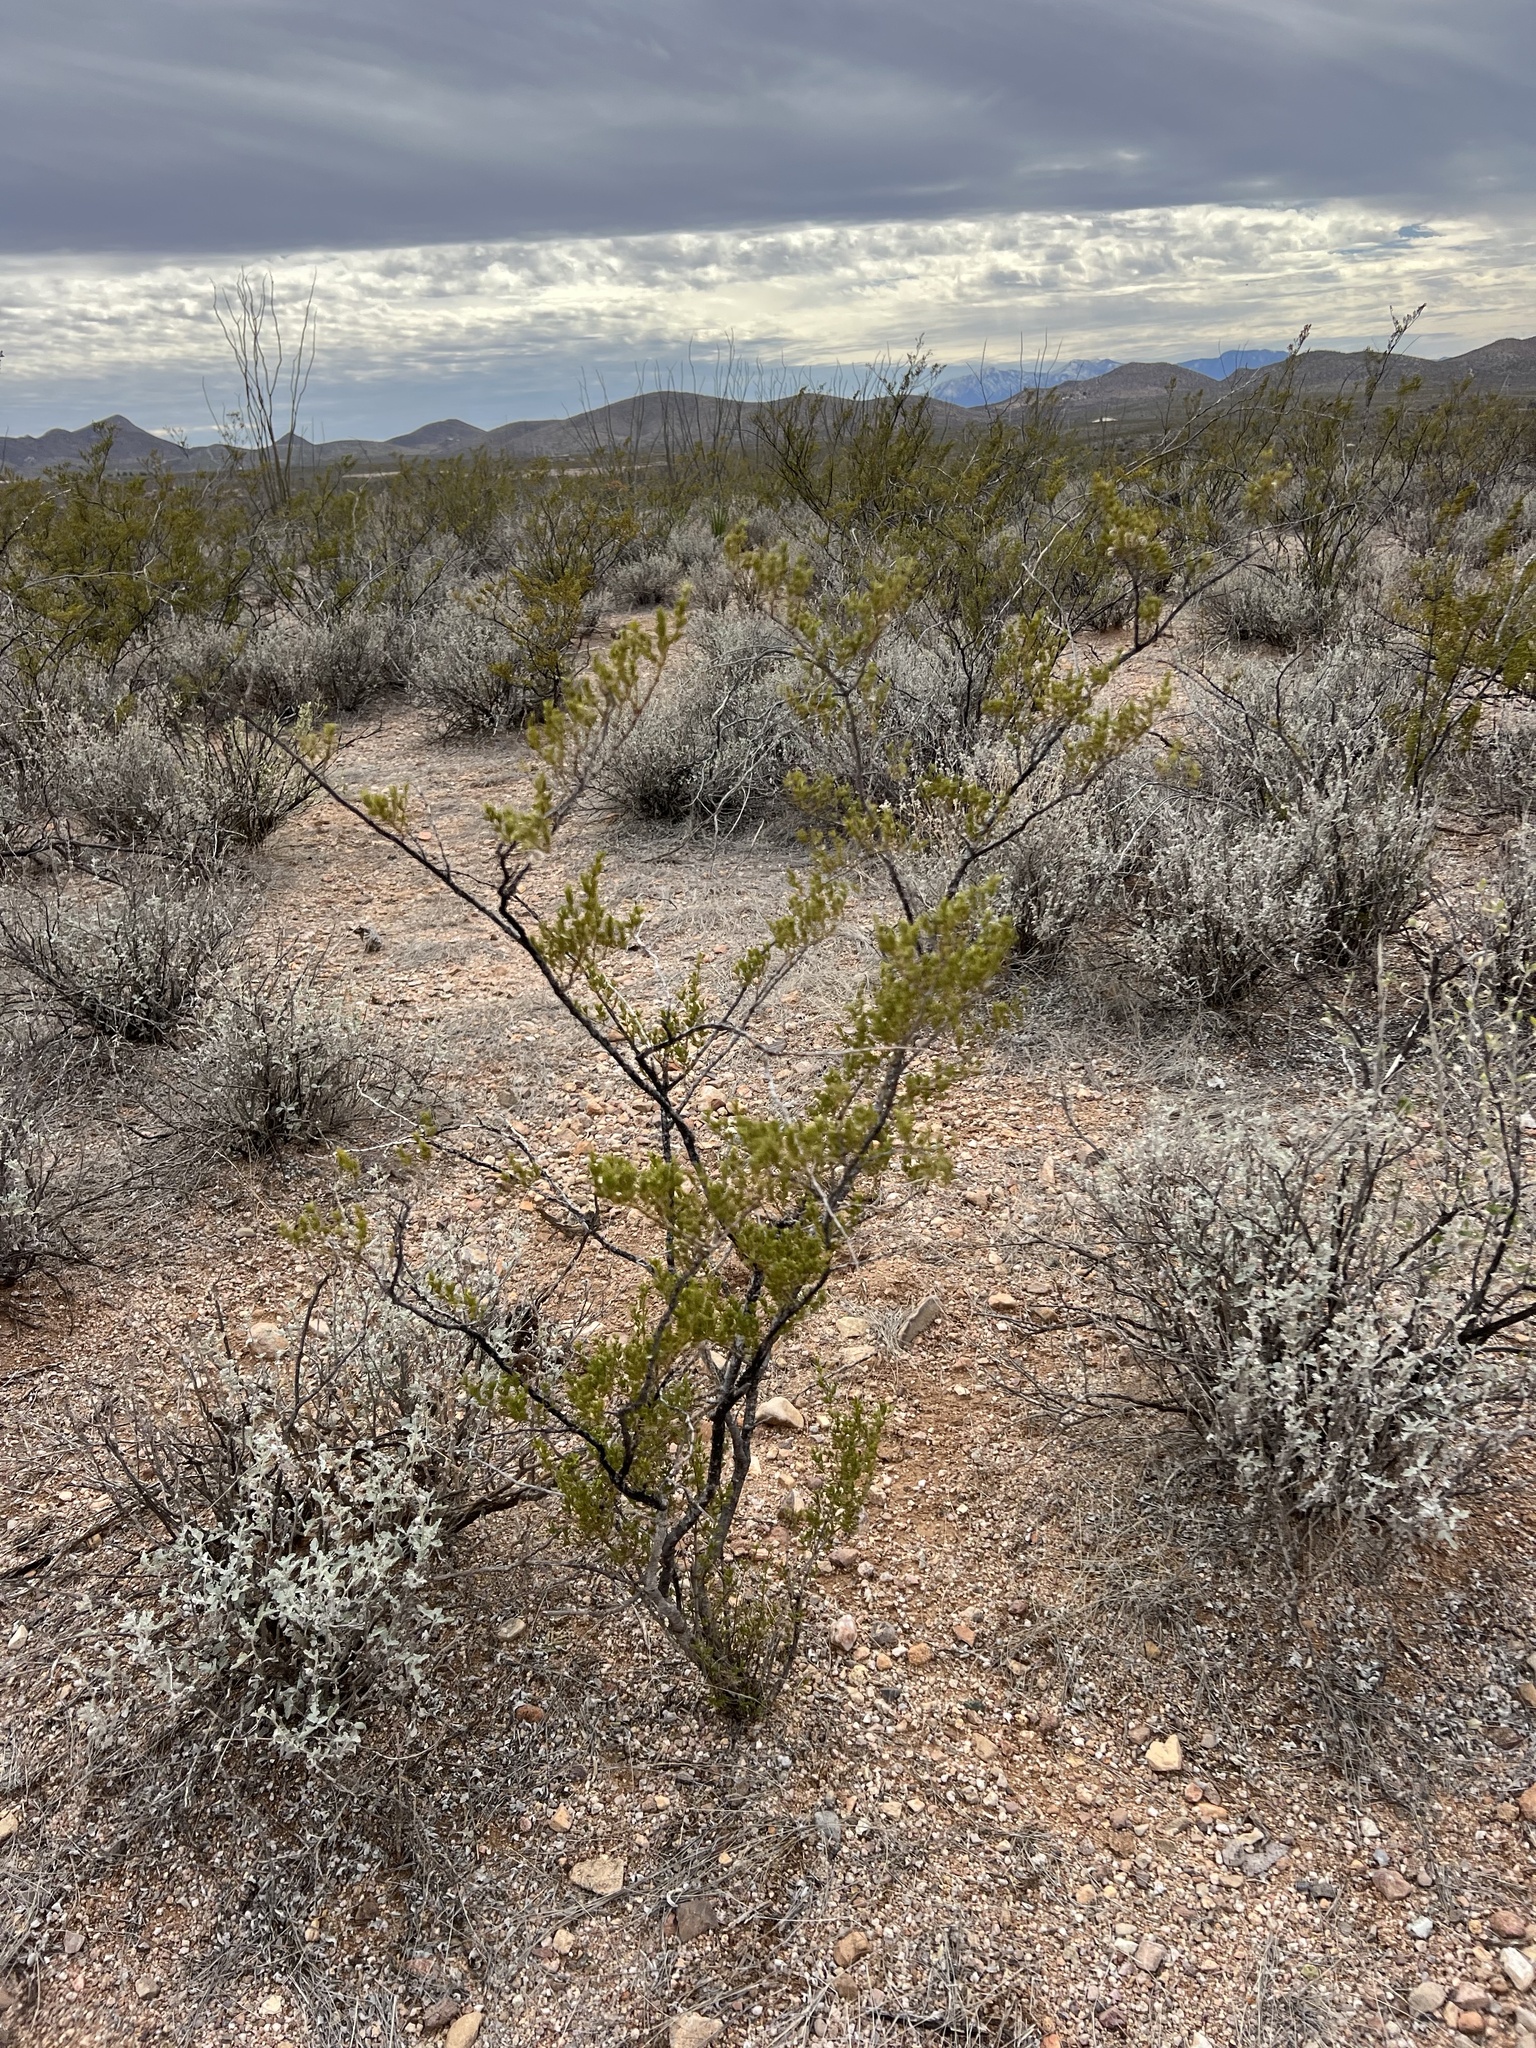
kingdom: Plantae
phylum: Tracheophyta
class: Magnoliopsida
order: Zygophyllales
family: Zygophyllaceae
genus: Larrea
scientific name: Larrea tridentata
